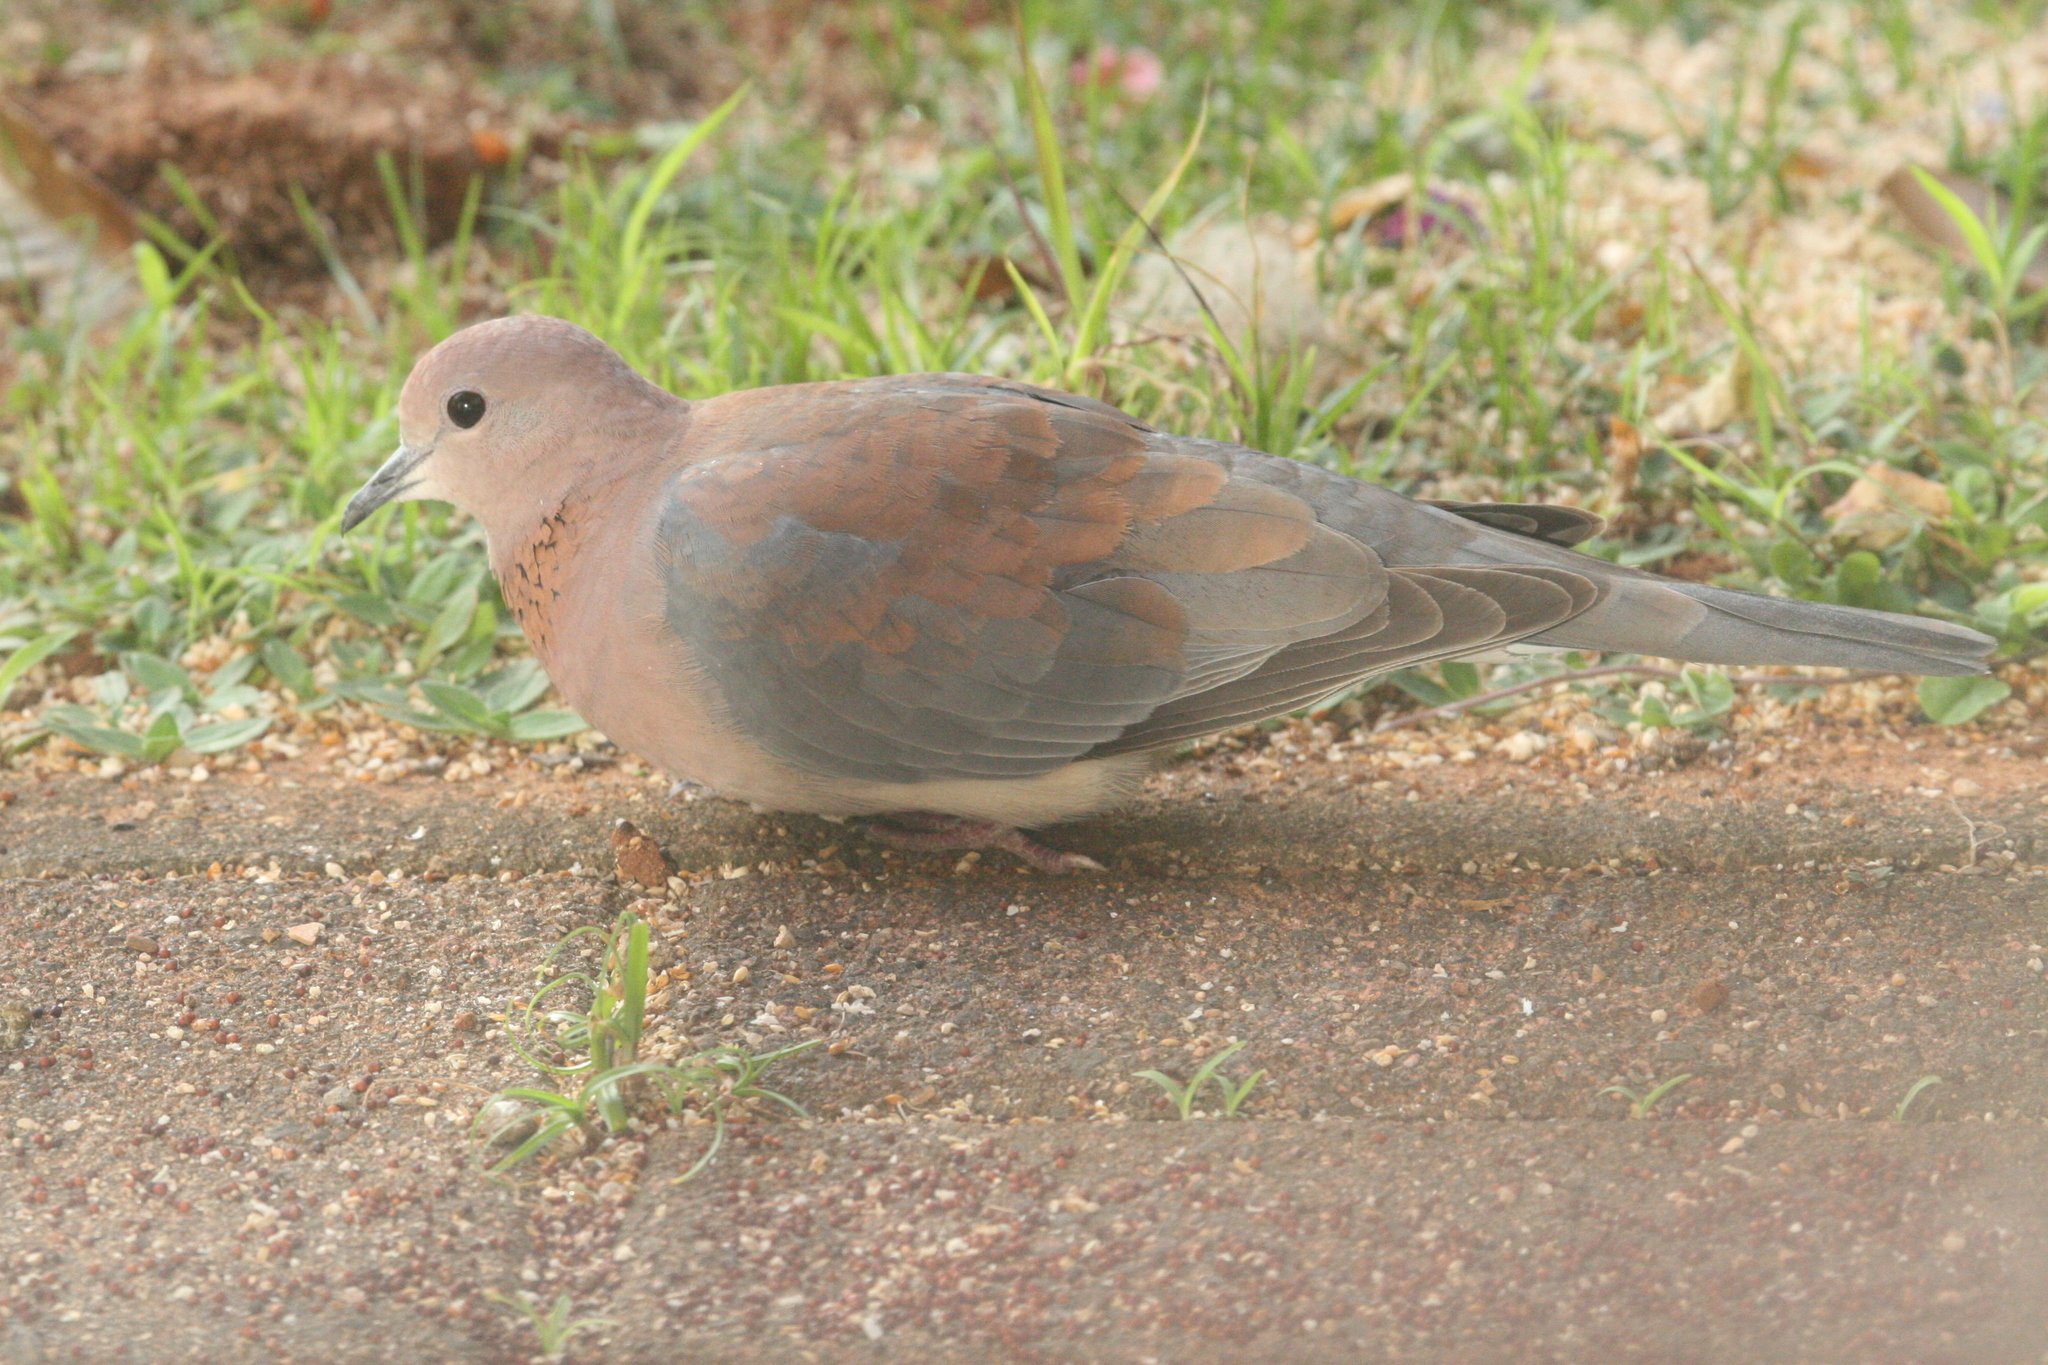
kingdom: Animalia
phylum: Chordata
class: Aves
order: Columbiformes
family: Columbidae
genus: Spilopelia
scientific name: Spilopelia senegalensis
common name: Laughing dove
